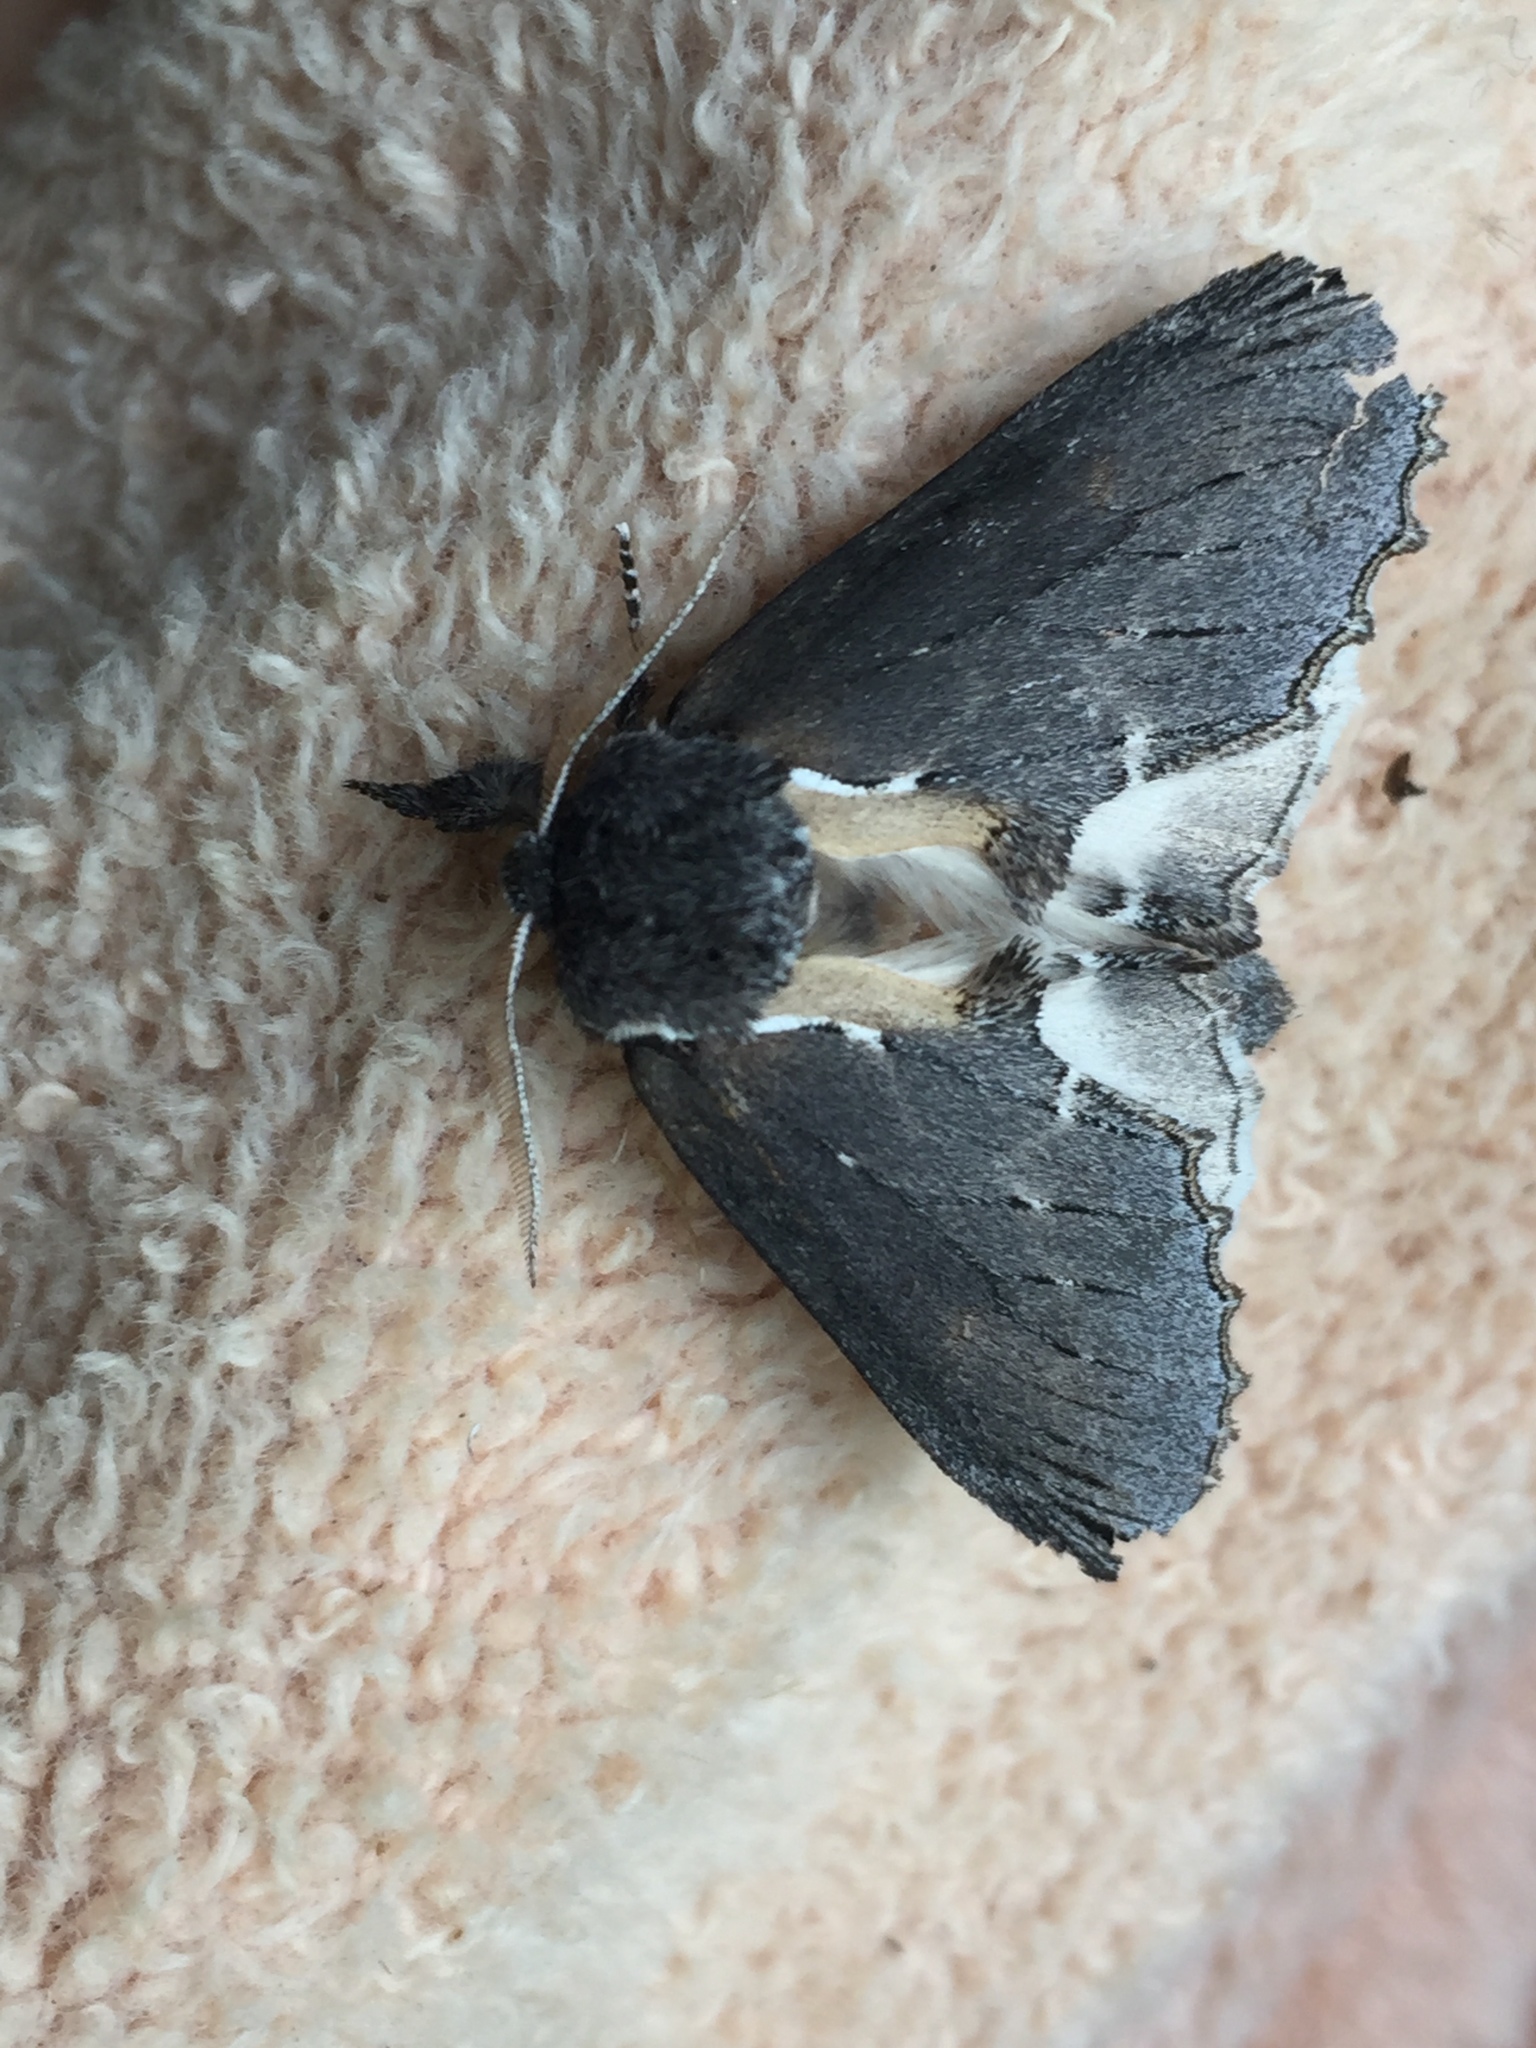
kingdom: Animalia
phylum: Arthropoda
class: Insecta
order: Lepidoptera
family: Notodontidae
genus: Pheosidea
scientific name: Pheosidea elegans
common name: Elegant prominent
